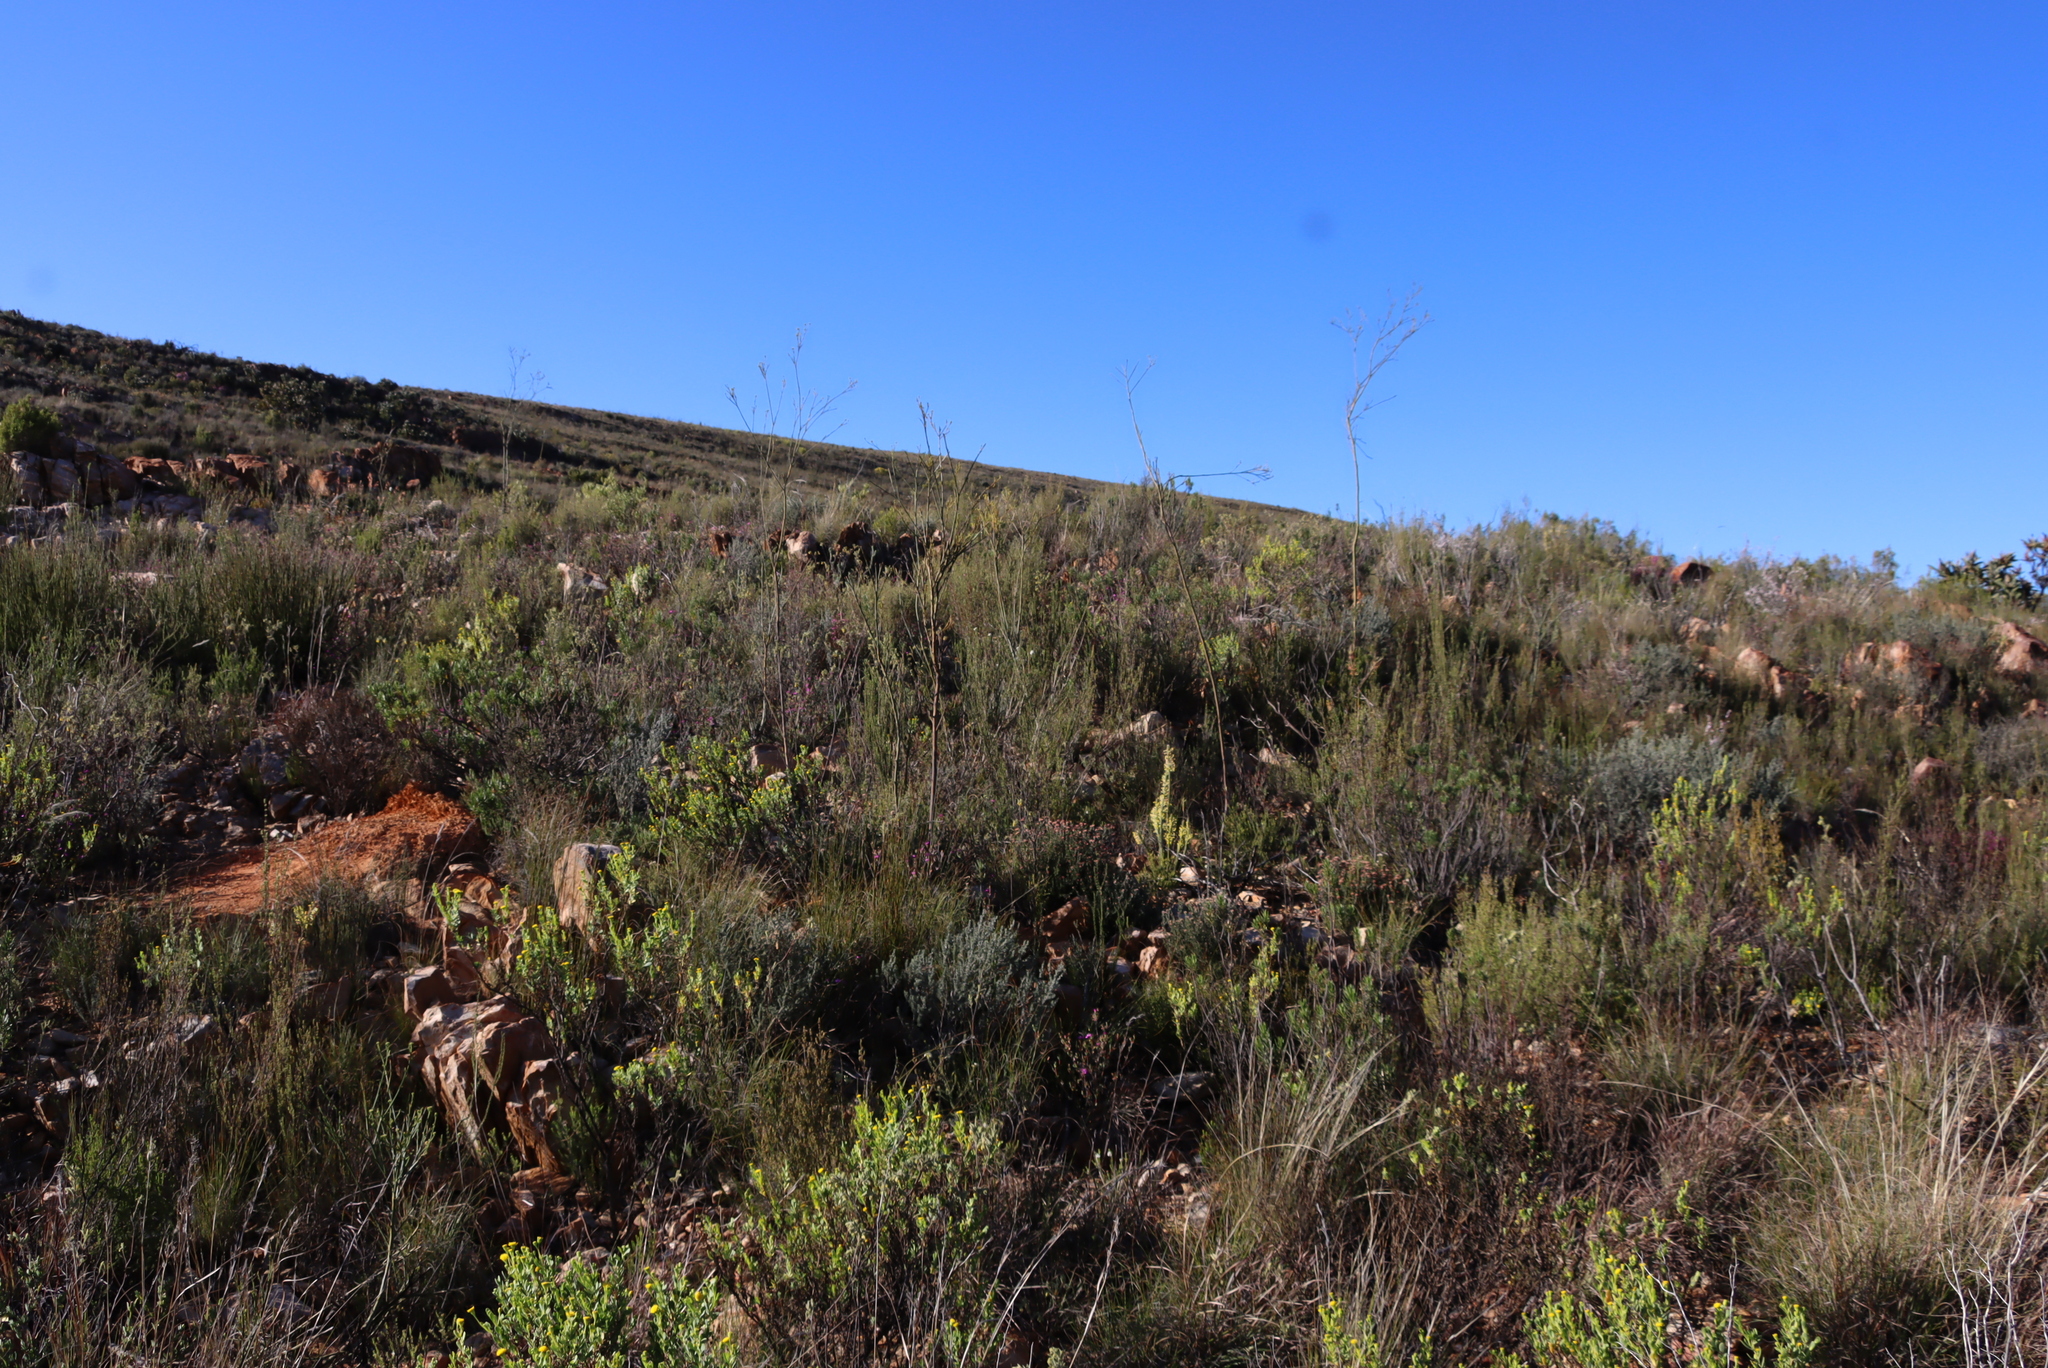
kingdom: Plantae
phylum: Tracheophyta
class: Magnoliopsida
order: Santalales
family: Thesiaceae
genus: Thesium
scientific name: Thesium strictum
